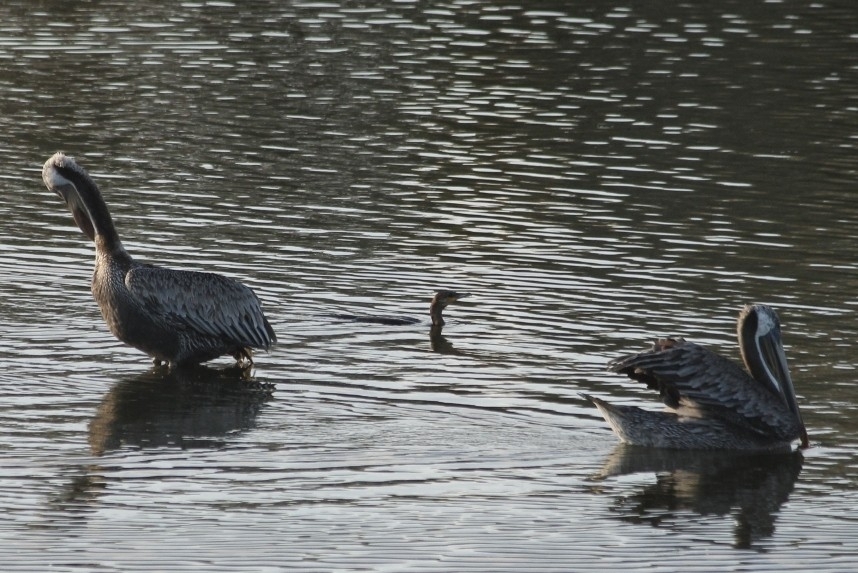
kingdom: Animalia
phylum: Chordata
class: Aves
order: Pelecaniformes
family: Pelecanidae
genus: Pelecanus
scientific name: Pelecanus occidentalis
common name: Brown pelican
